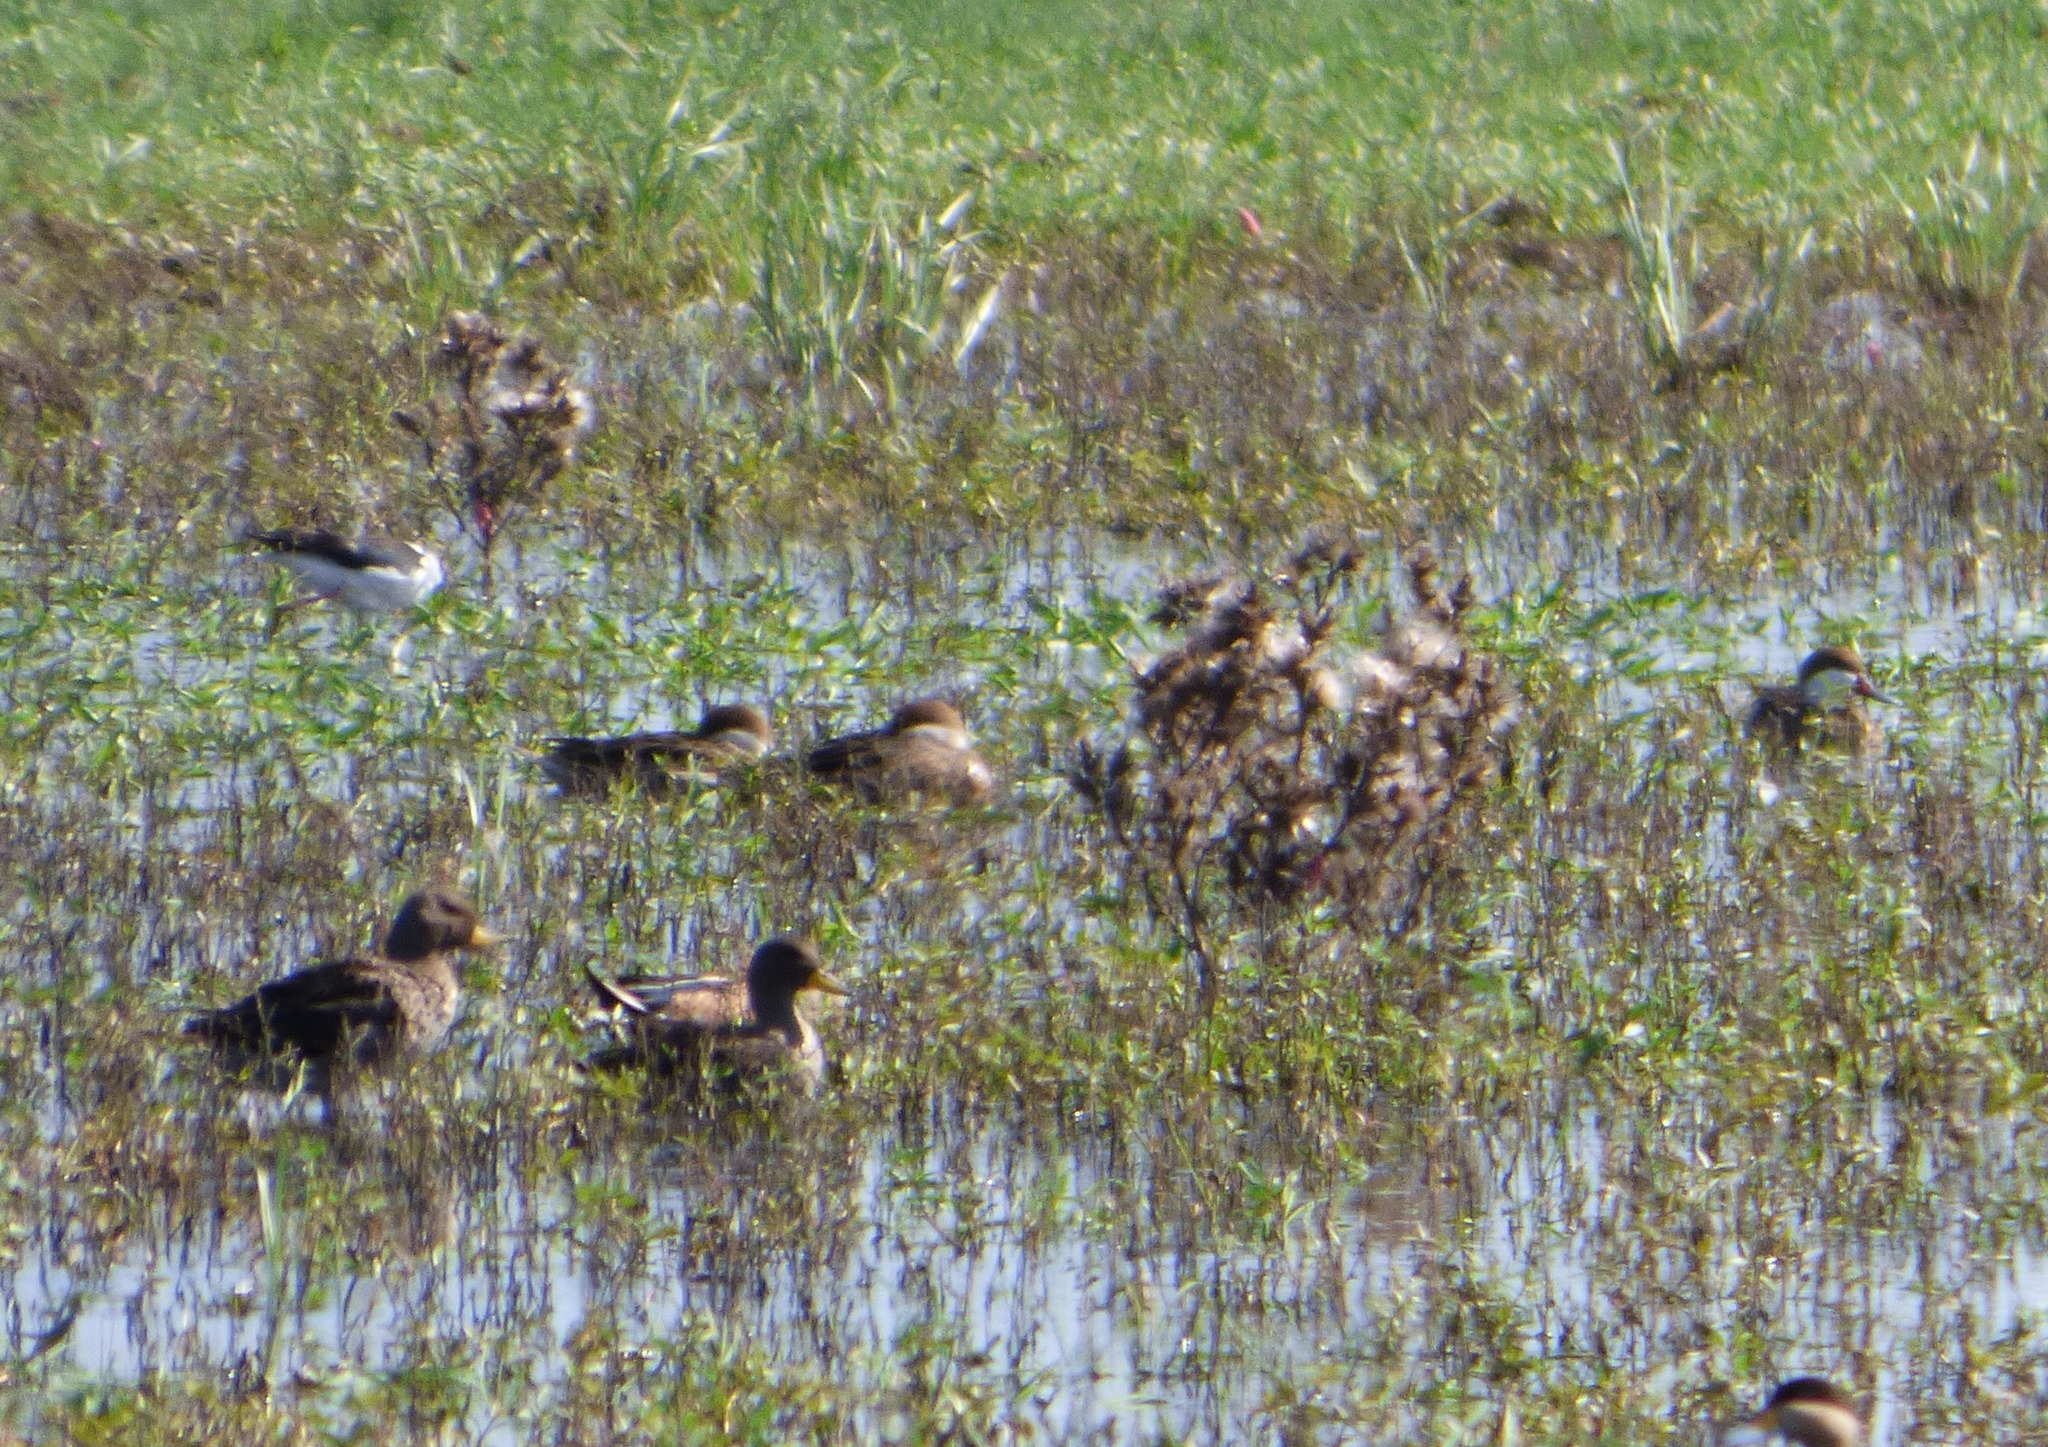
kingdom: Animalia
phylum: Chordata
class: Aves
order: Anseriformes
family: Anatidae
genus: Anas
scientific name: Anas flavirostris
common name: Yellow-billed teal
